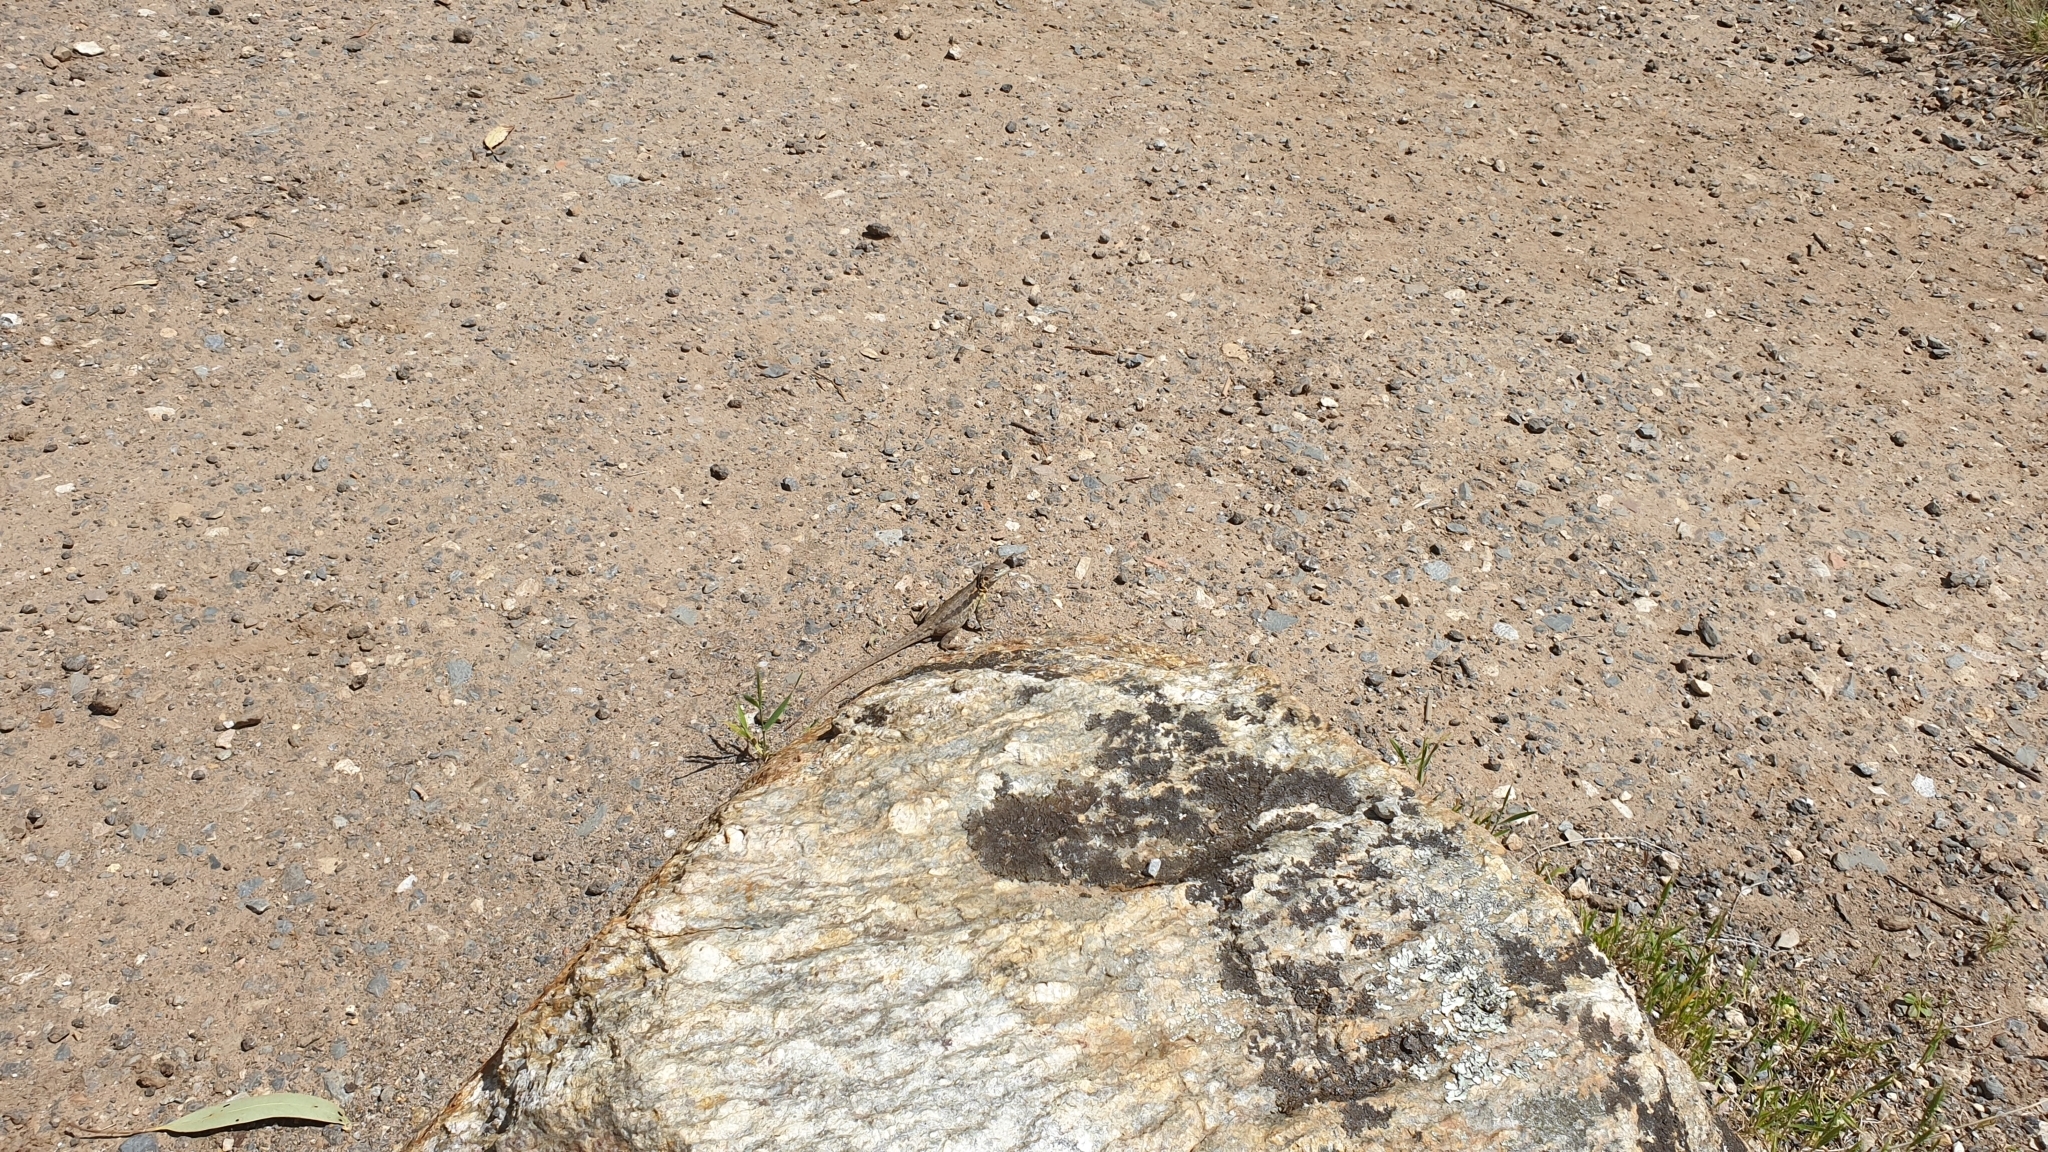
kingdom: Animalia
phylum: Chordata
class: Squamata
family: Agamidae
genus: Ctenophorus
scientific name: Ctenophorus decresii
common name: Tawny dragon
